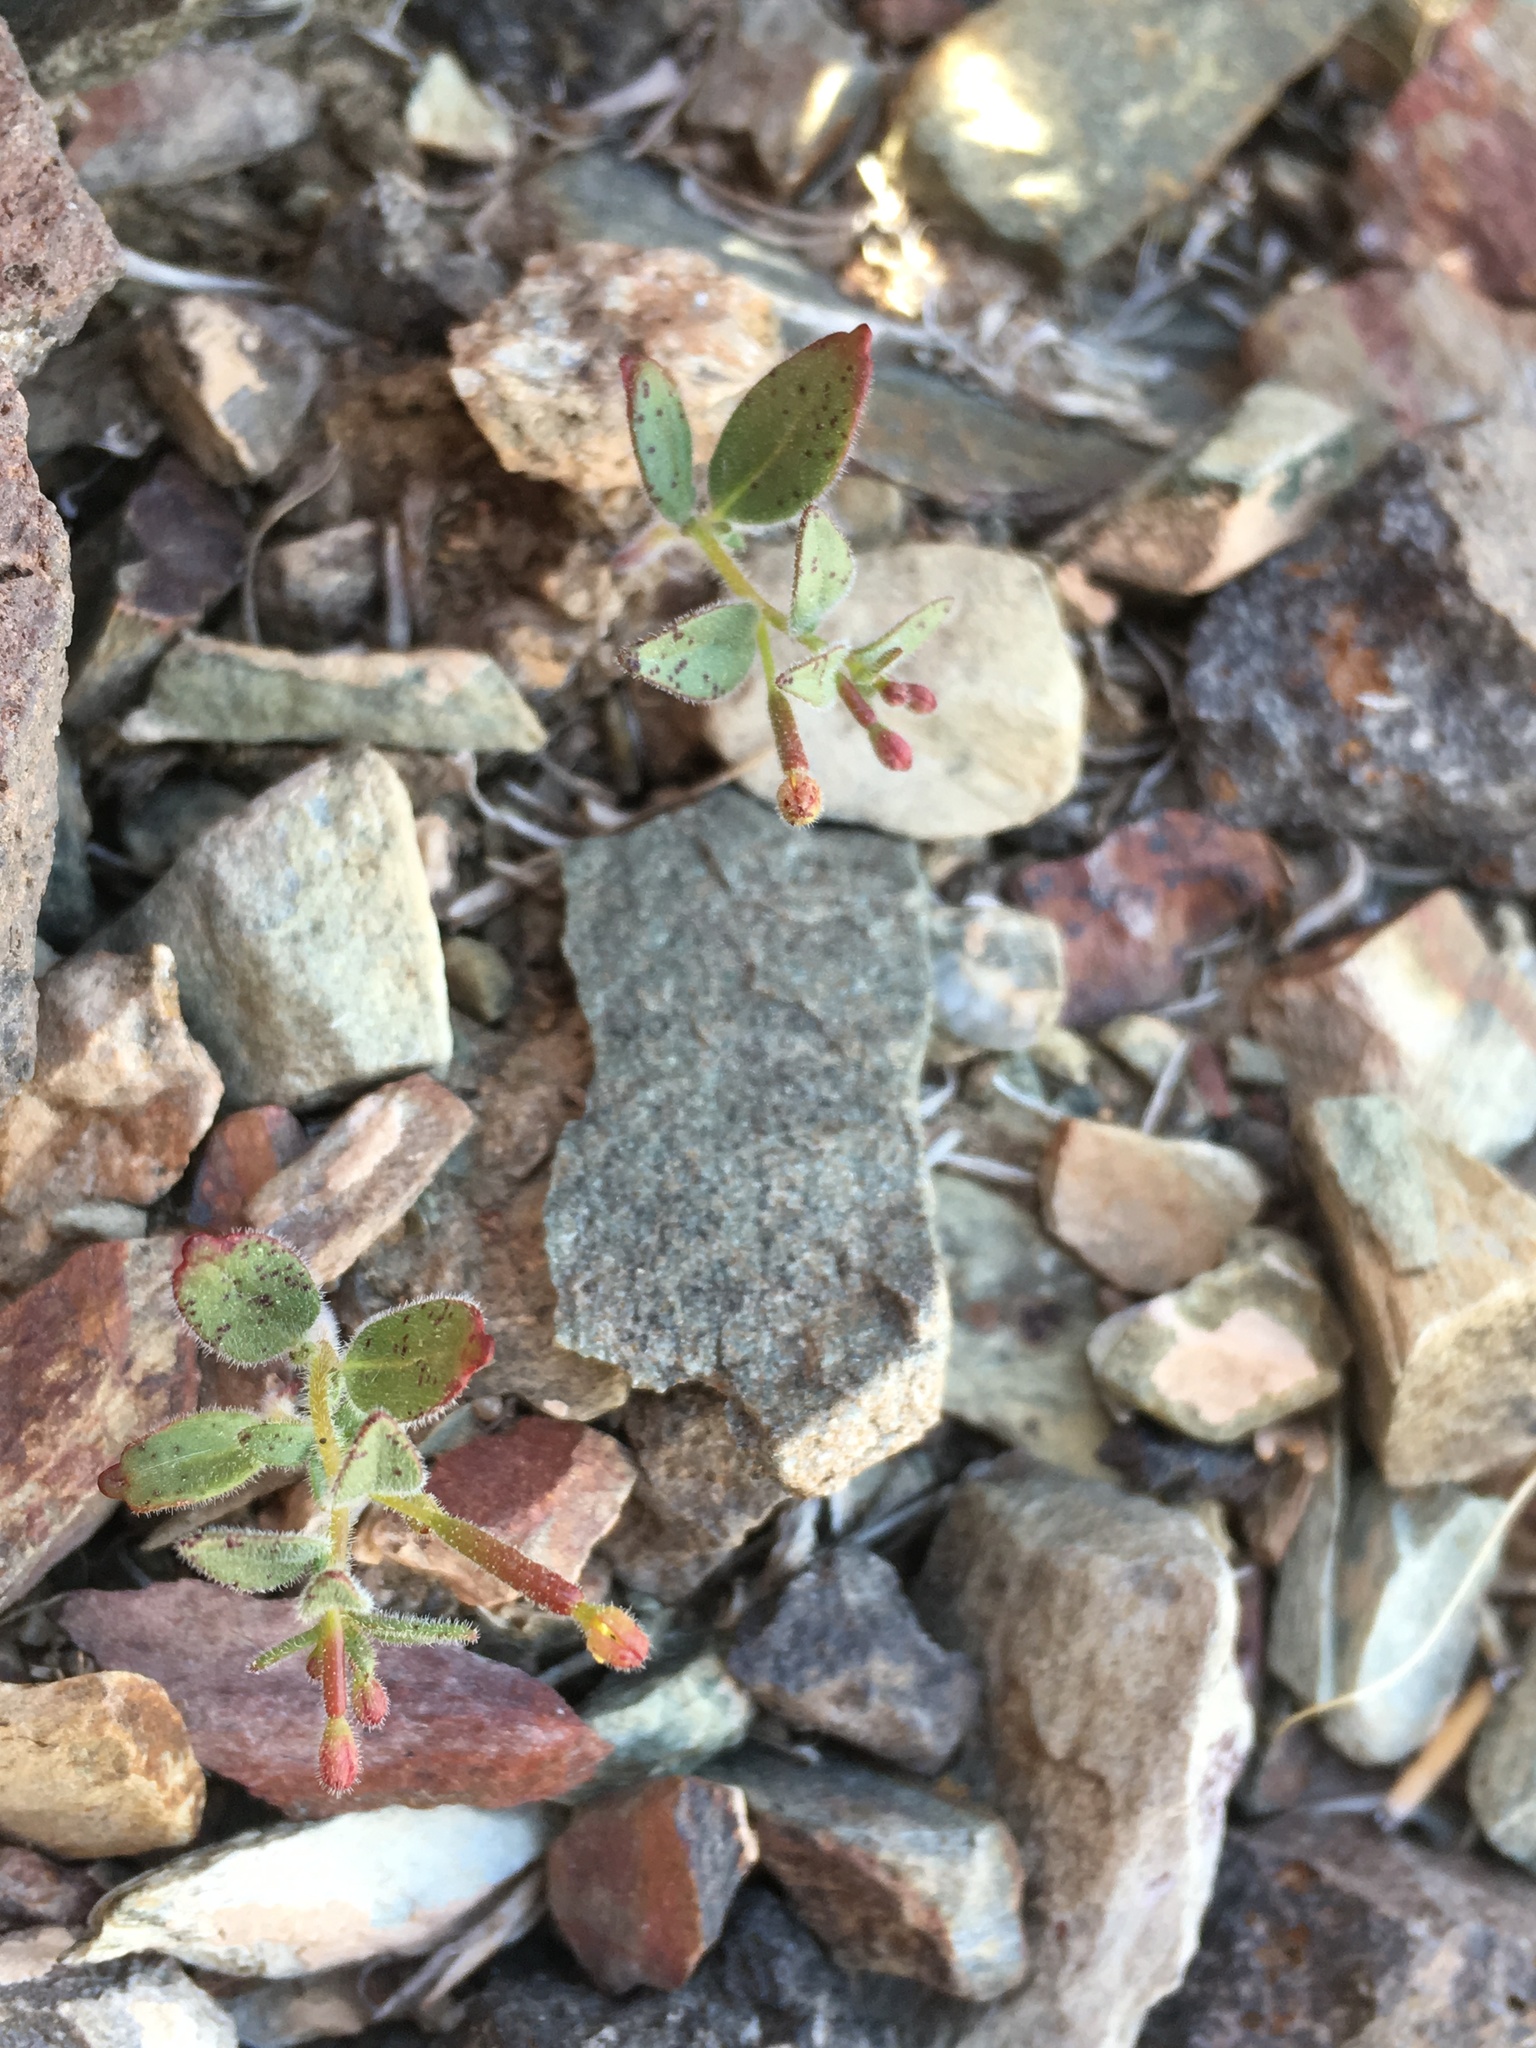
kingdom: Plantae
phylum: Tracheophyta
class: Magnoliopsida
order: Myrtales
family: Onagraceae
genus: Chylismiella
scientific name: Chylismiella pterosperma
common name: Wingfruit suncup
